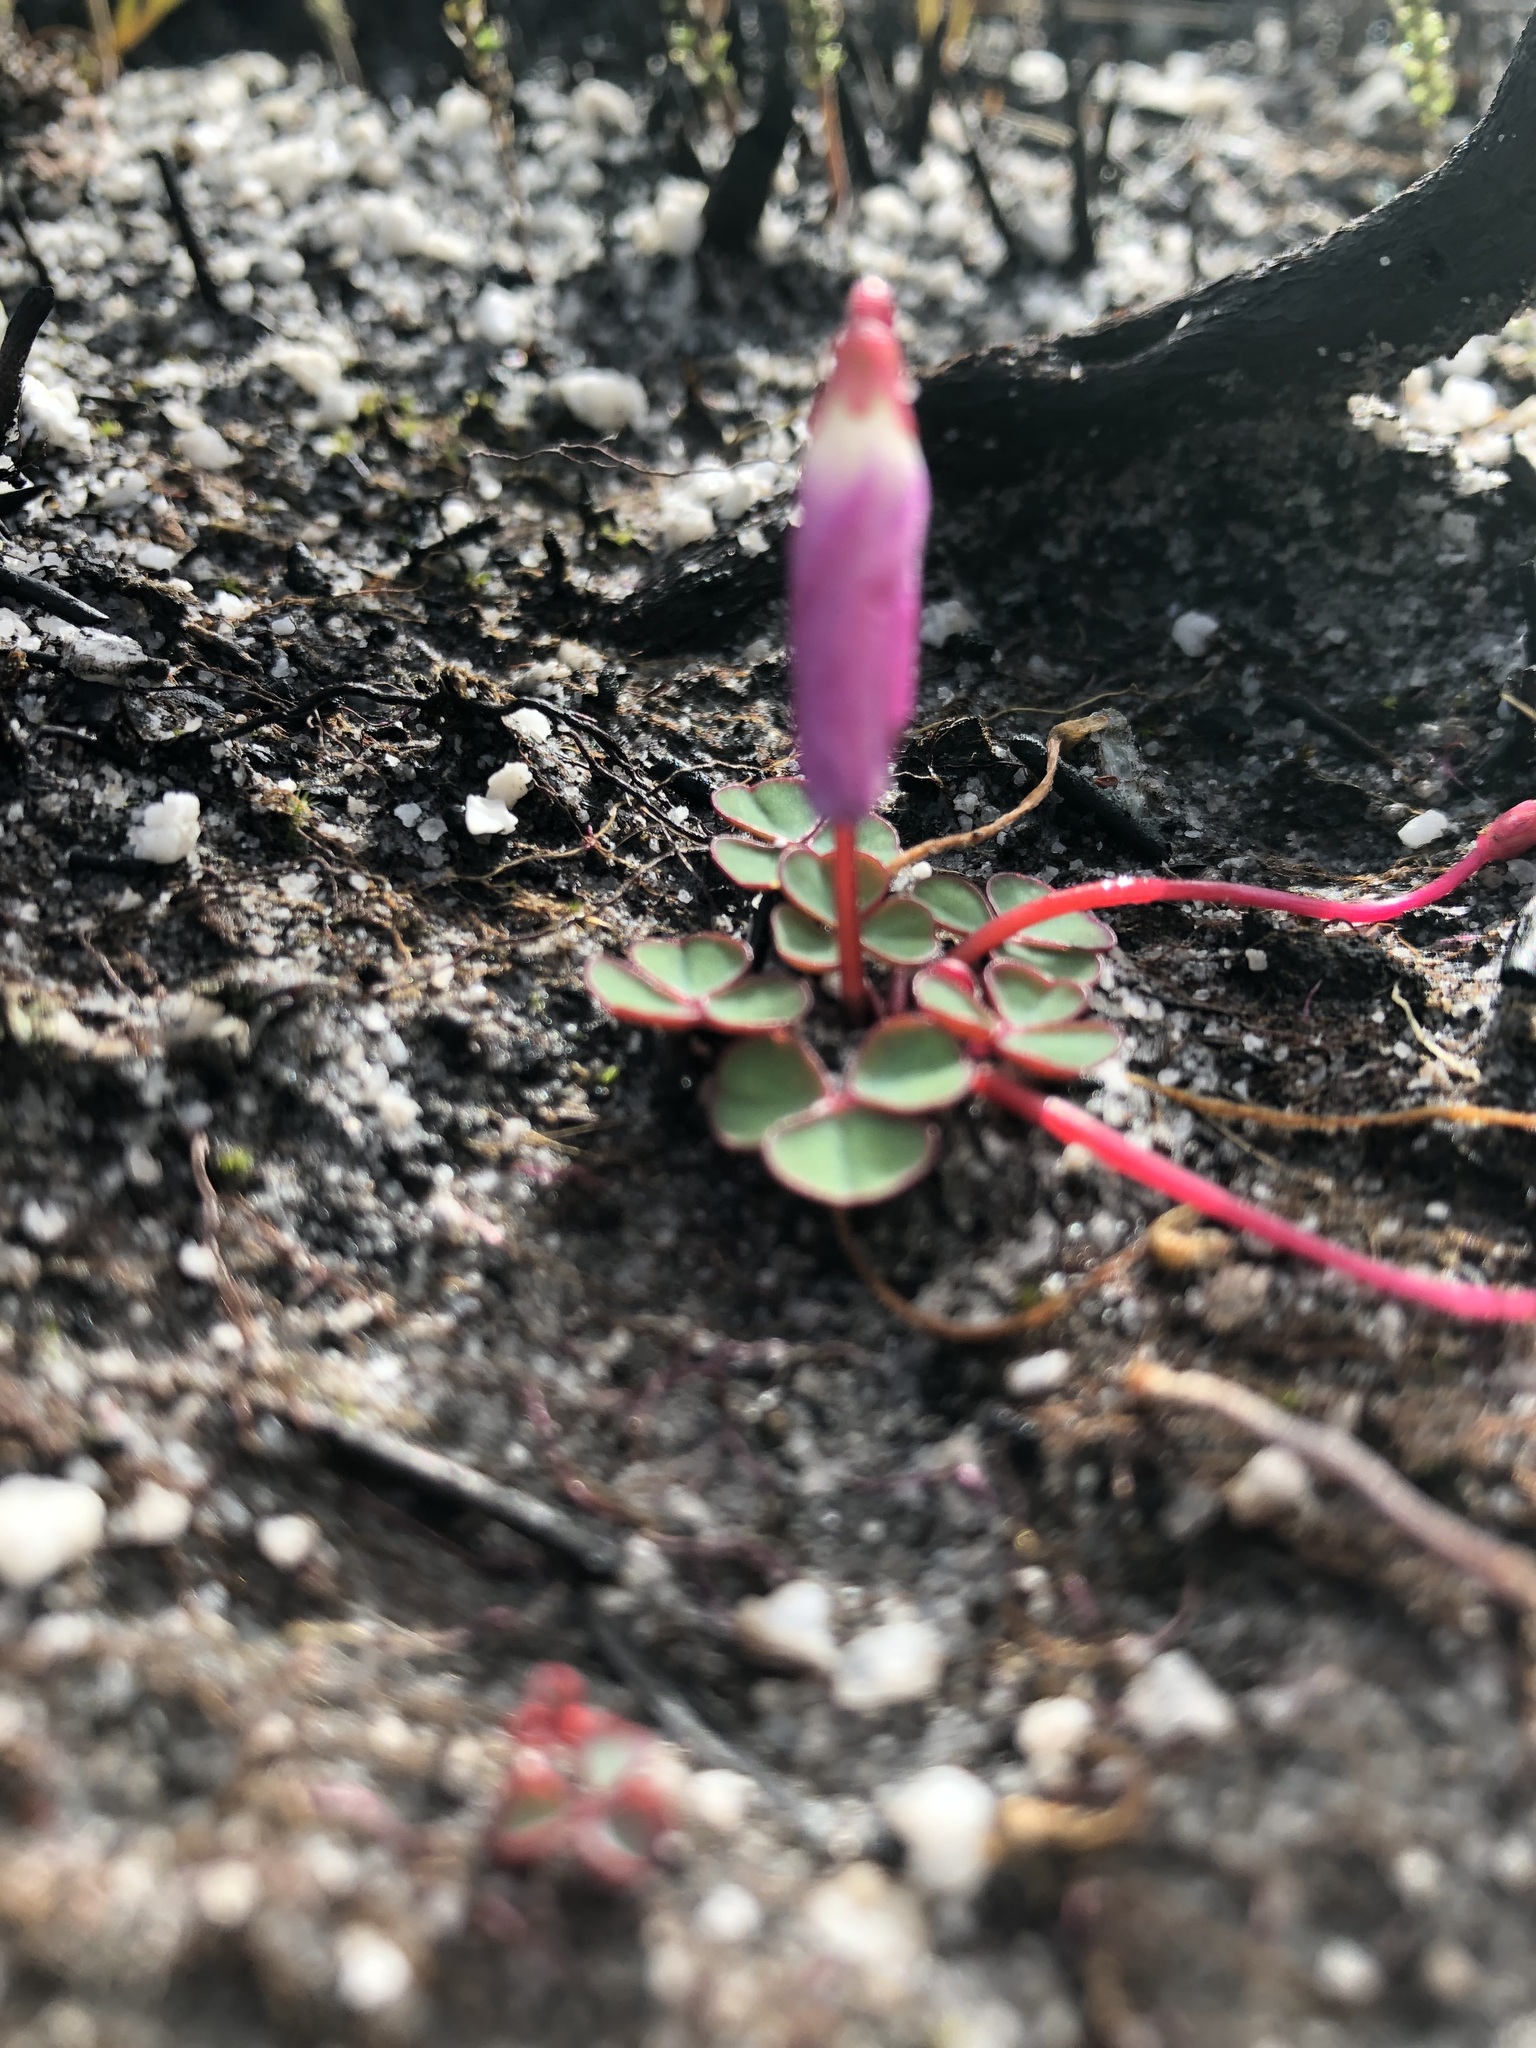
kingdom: Plantae
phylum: Tracheophyta
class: Magnoliopsida
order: Oxalidales
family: Oxalidaceae
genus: Oxalis
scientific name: Oxalis commutata
